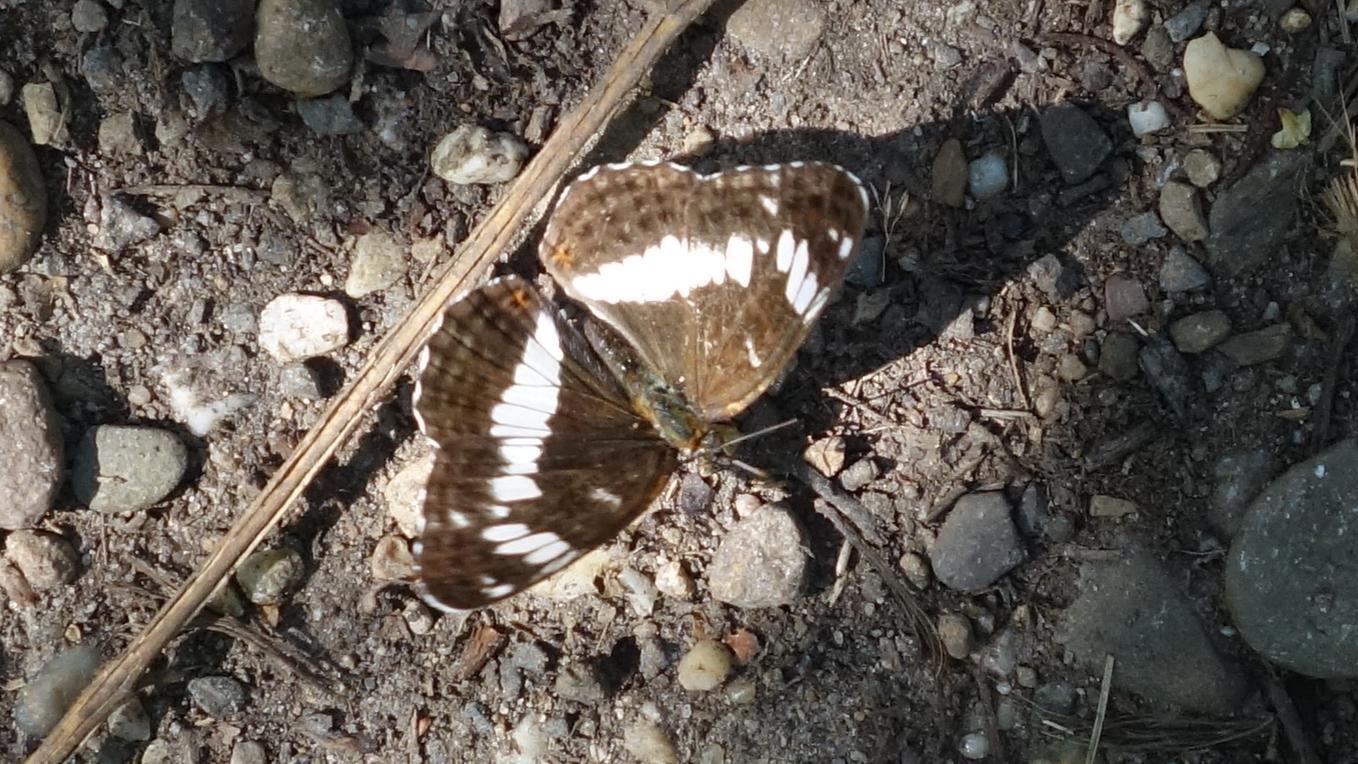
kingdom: Animalia
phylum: Arthropoda
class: Insecta
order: Lepidoptera
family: Nymphalidae
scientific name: Nymphalidae
